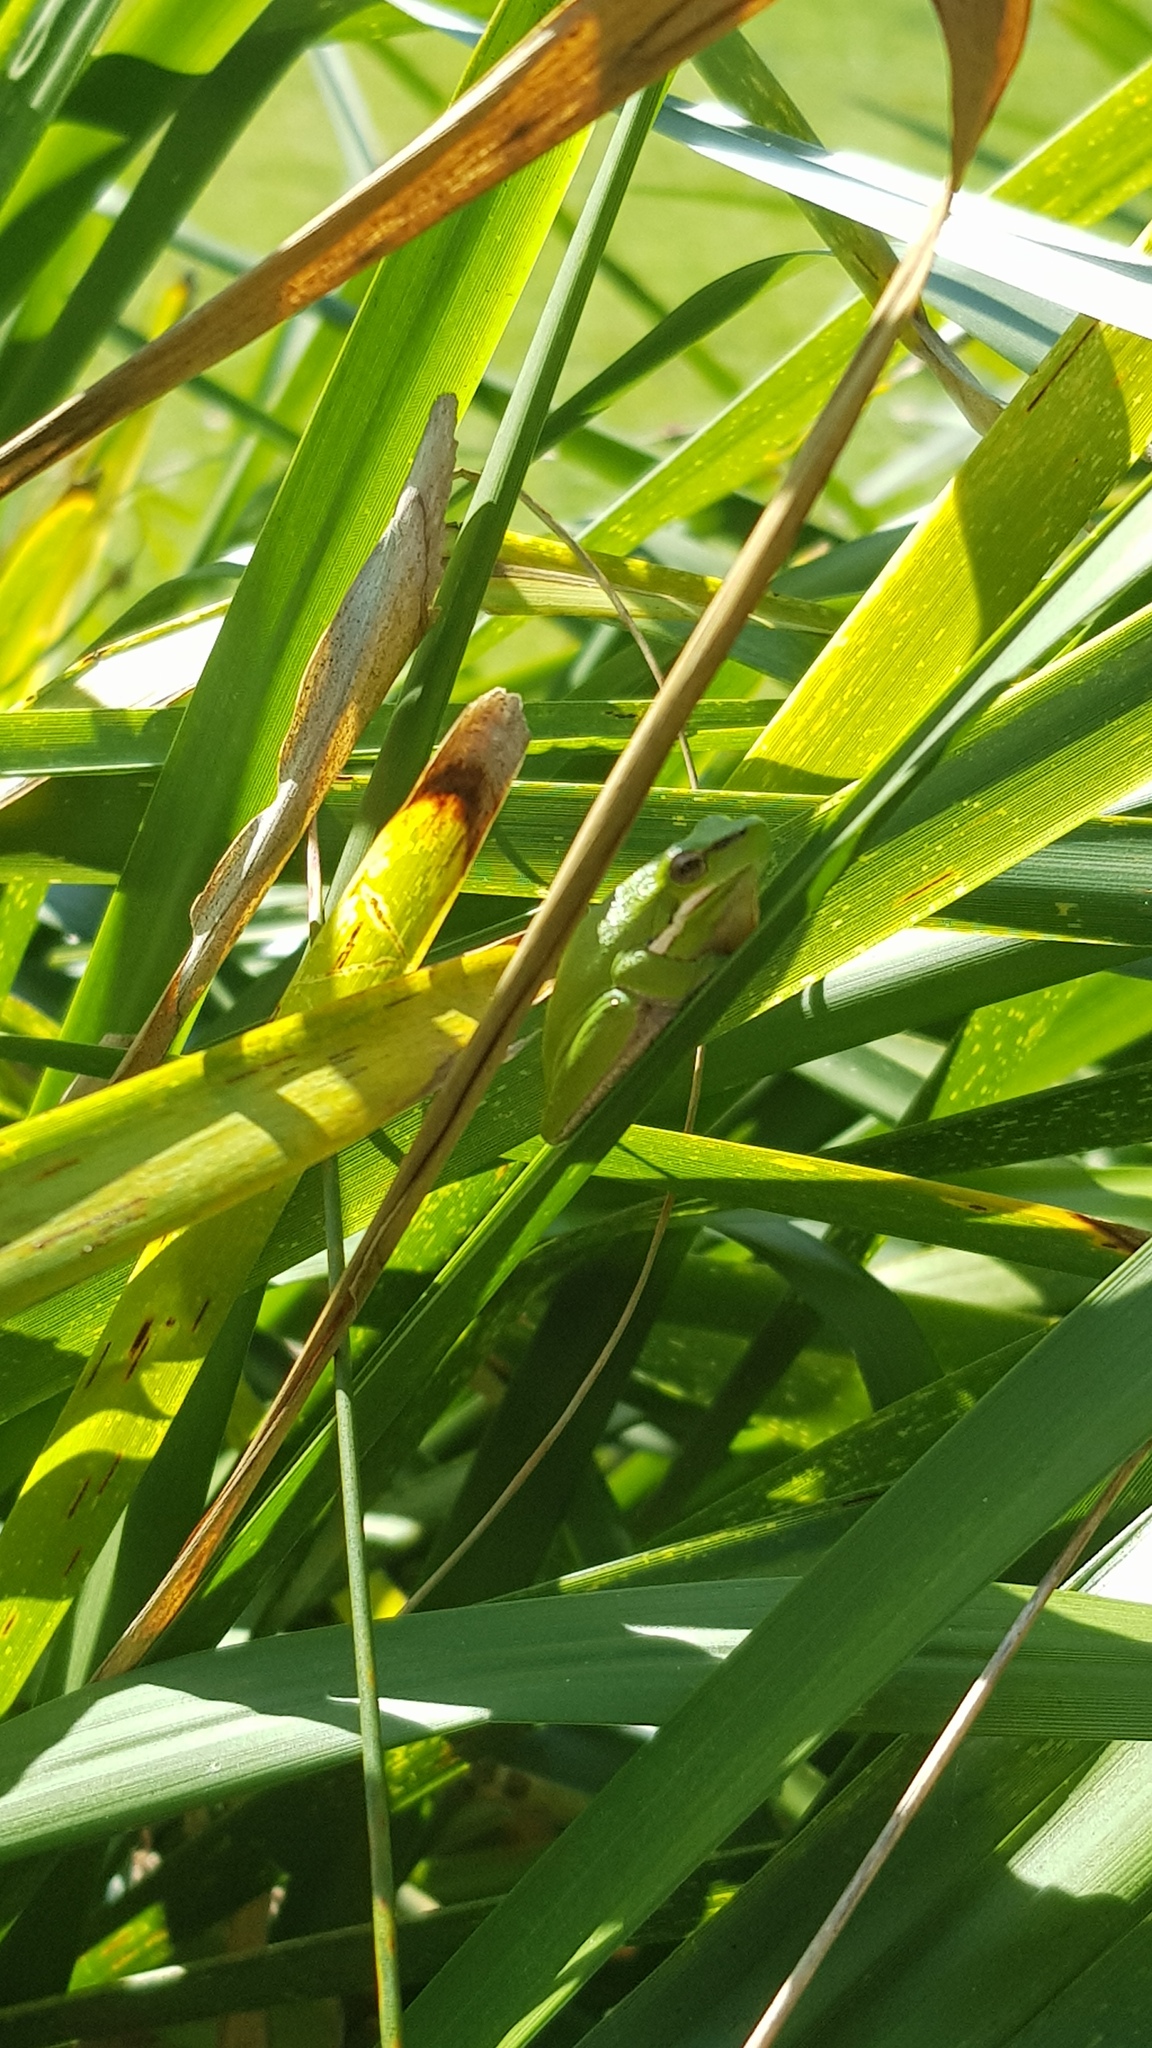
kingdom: Animalia
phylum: Chordata
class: Amphibia
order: Anura
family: Pelodryadidae
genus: Litoria
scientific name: Litoria fallax
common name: Eastern dwarf treefrog
